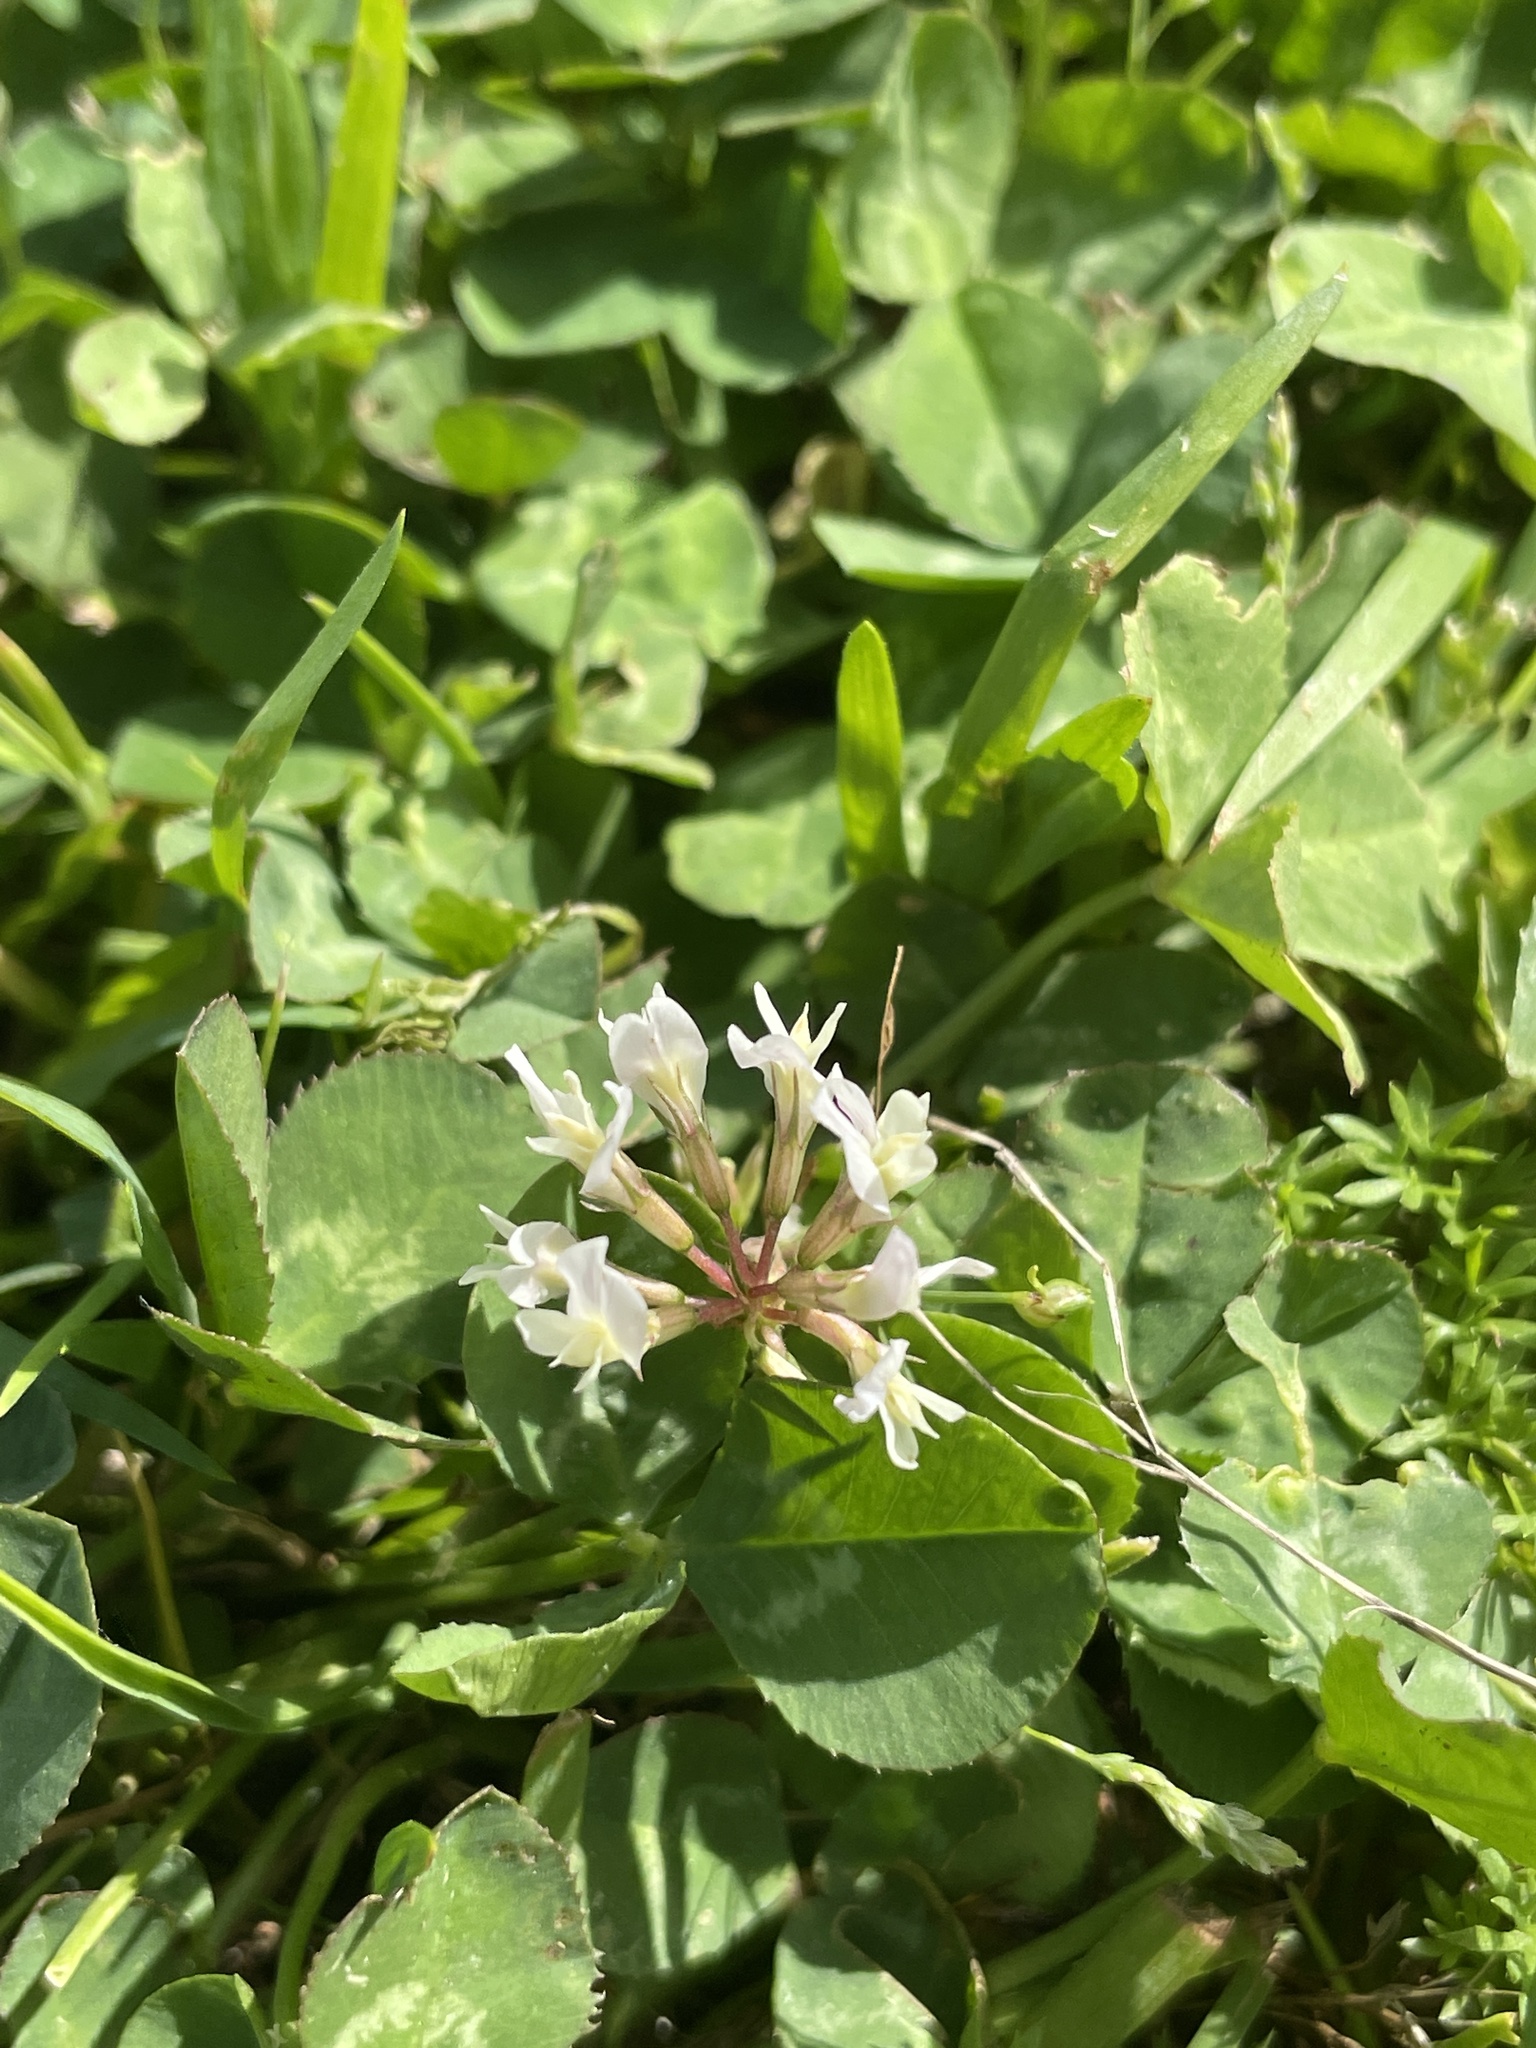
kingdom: Plantae
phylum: Tracheophyta
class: Magnoliopsida
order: Fabales
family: Fabaceae
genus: Trifolium
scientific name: Trifolium repens
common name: White clover
